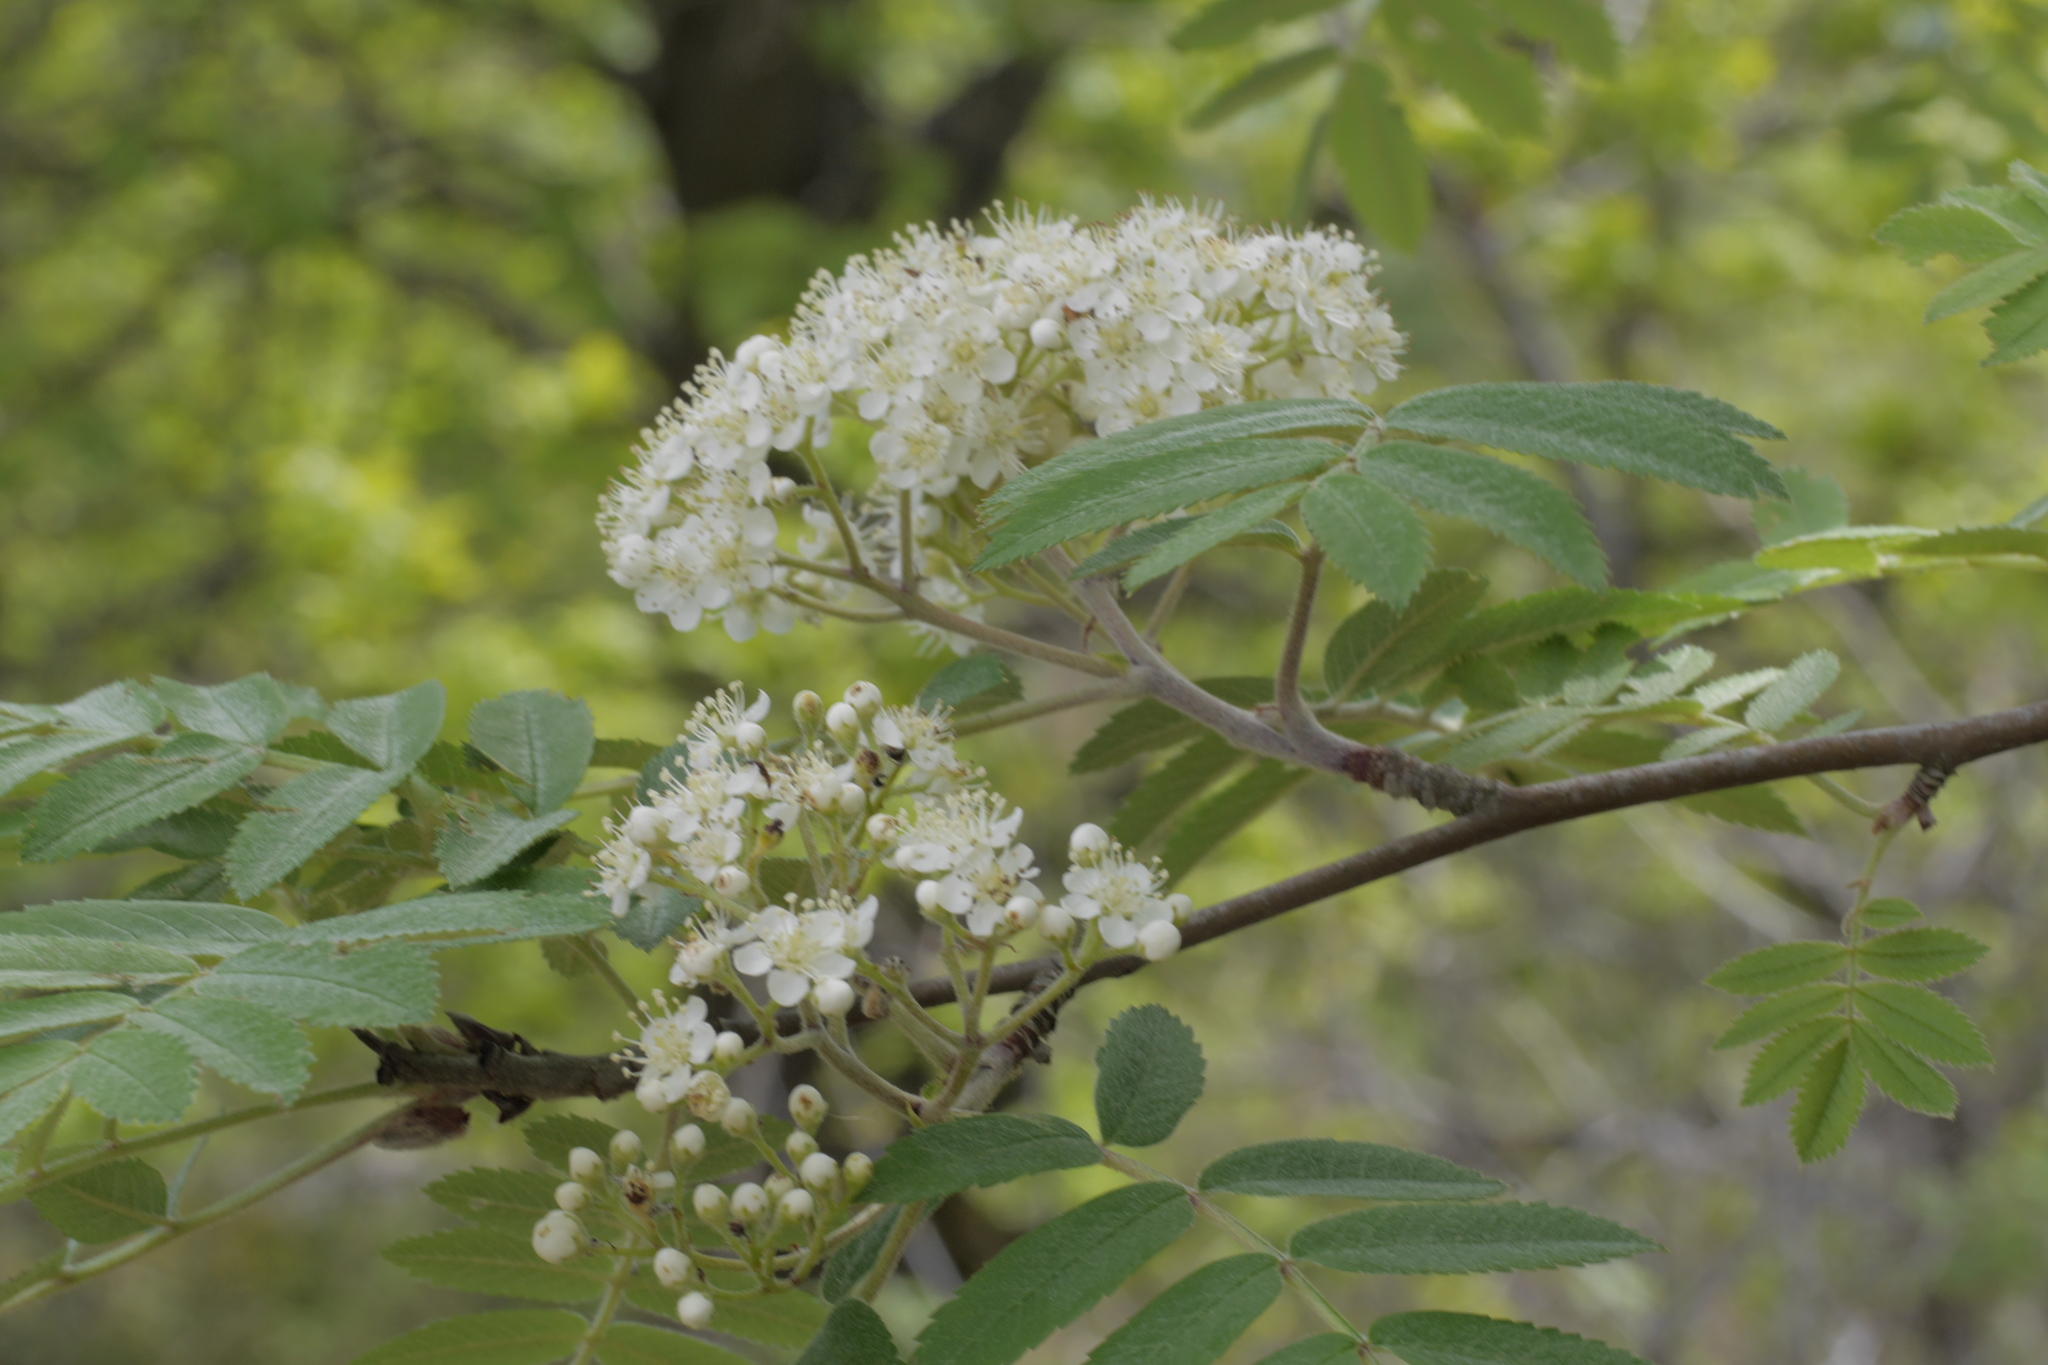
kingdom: Plantae
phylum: Tracheophyta
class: Magnoliopsida
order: Rosales
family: Rosaceae
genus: Sorbus
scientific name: Sorbus aucuparia
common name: Rowan
